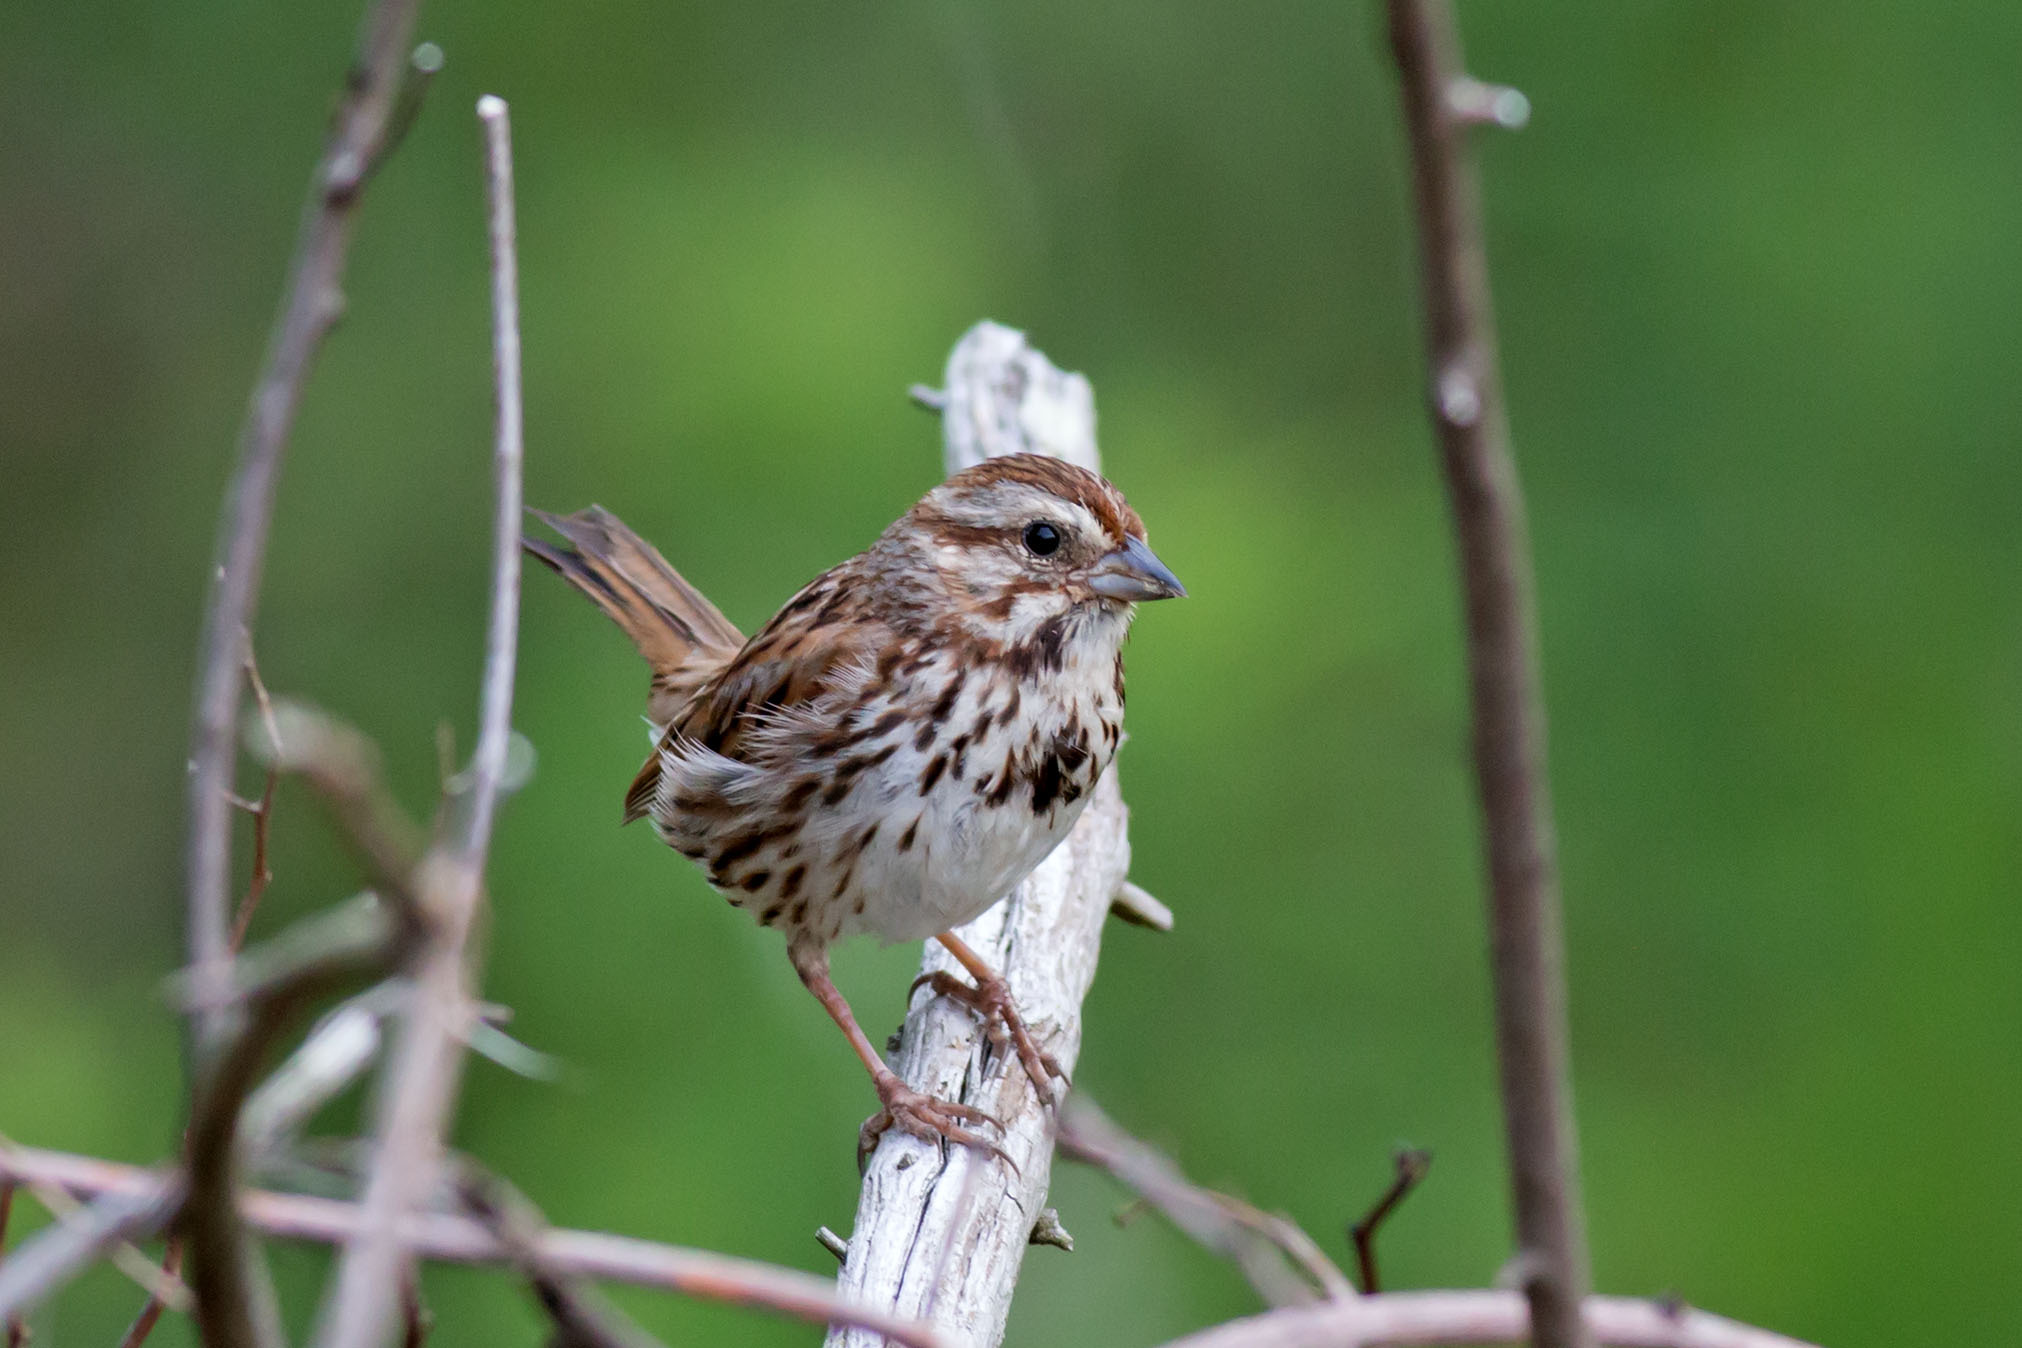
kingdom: Animalia
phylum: Chordata
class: Aves
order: Passeriformes
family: Passerellidae
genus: Melospiza
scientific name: Melospiza melodia
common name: Song sparrow
